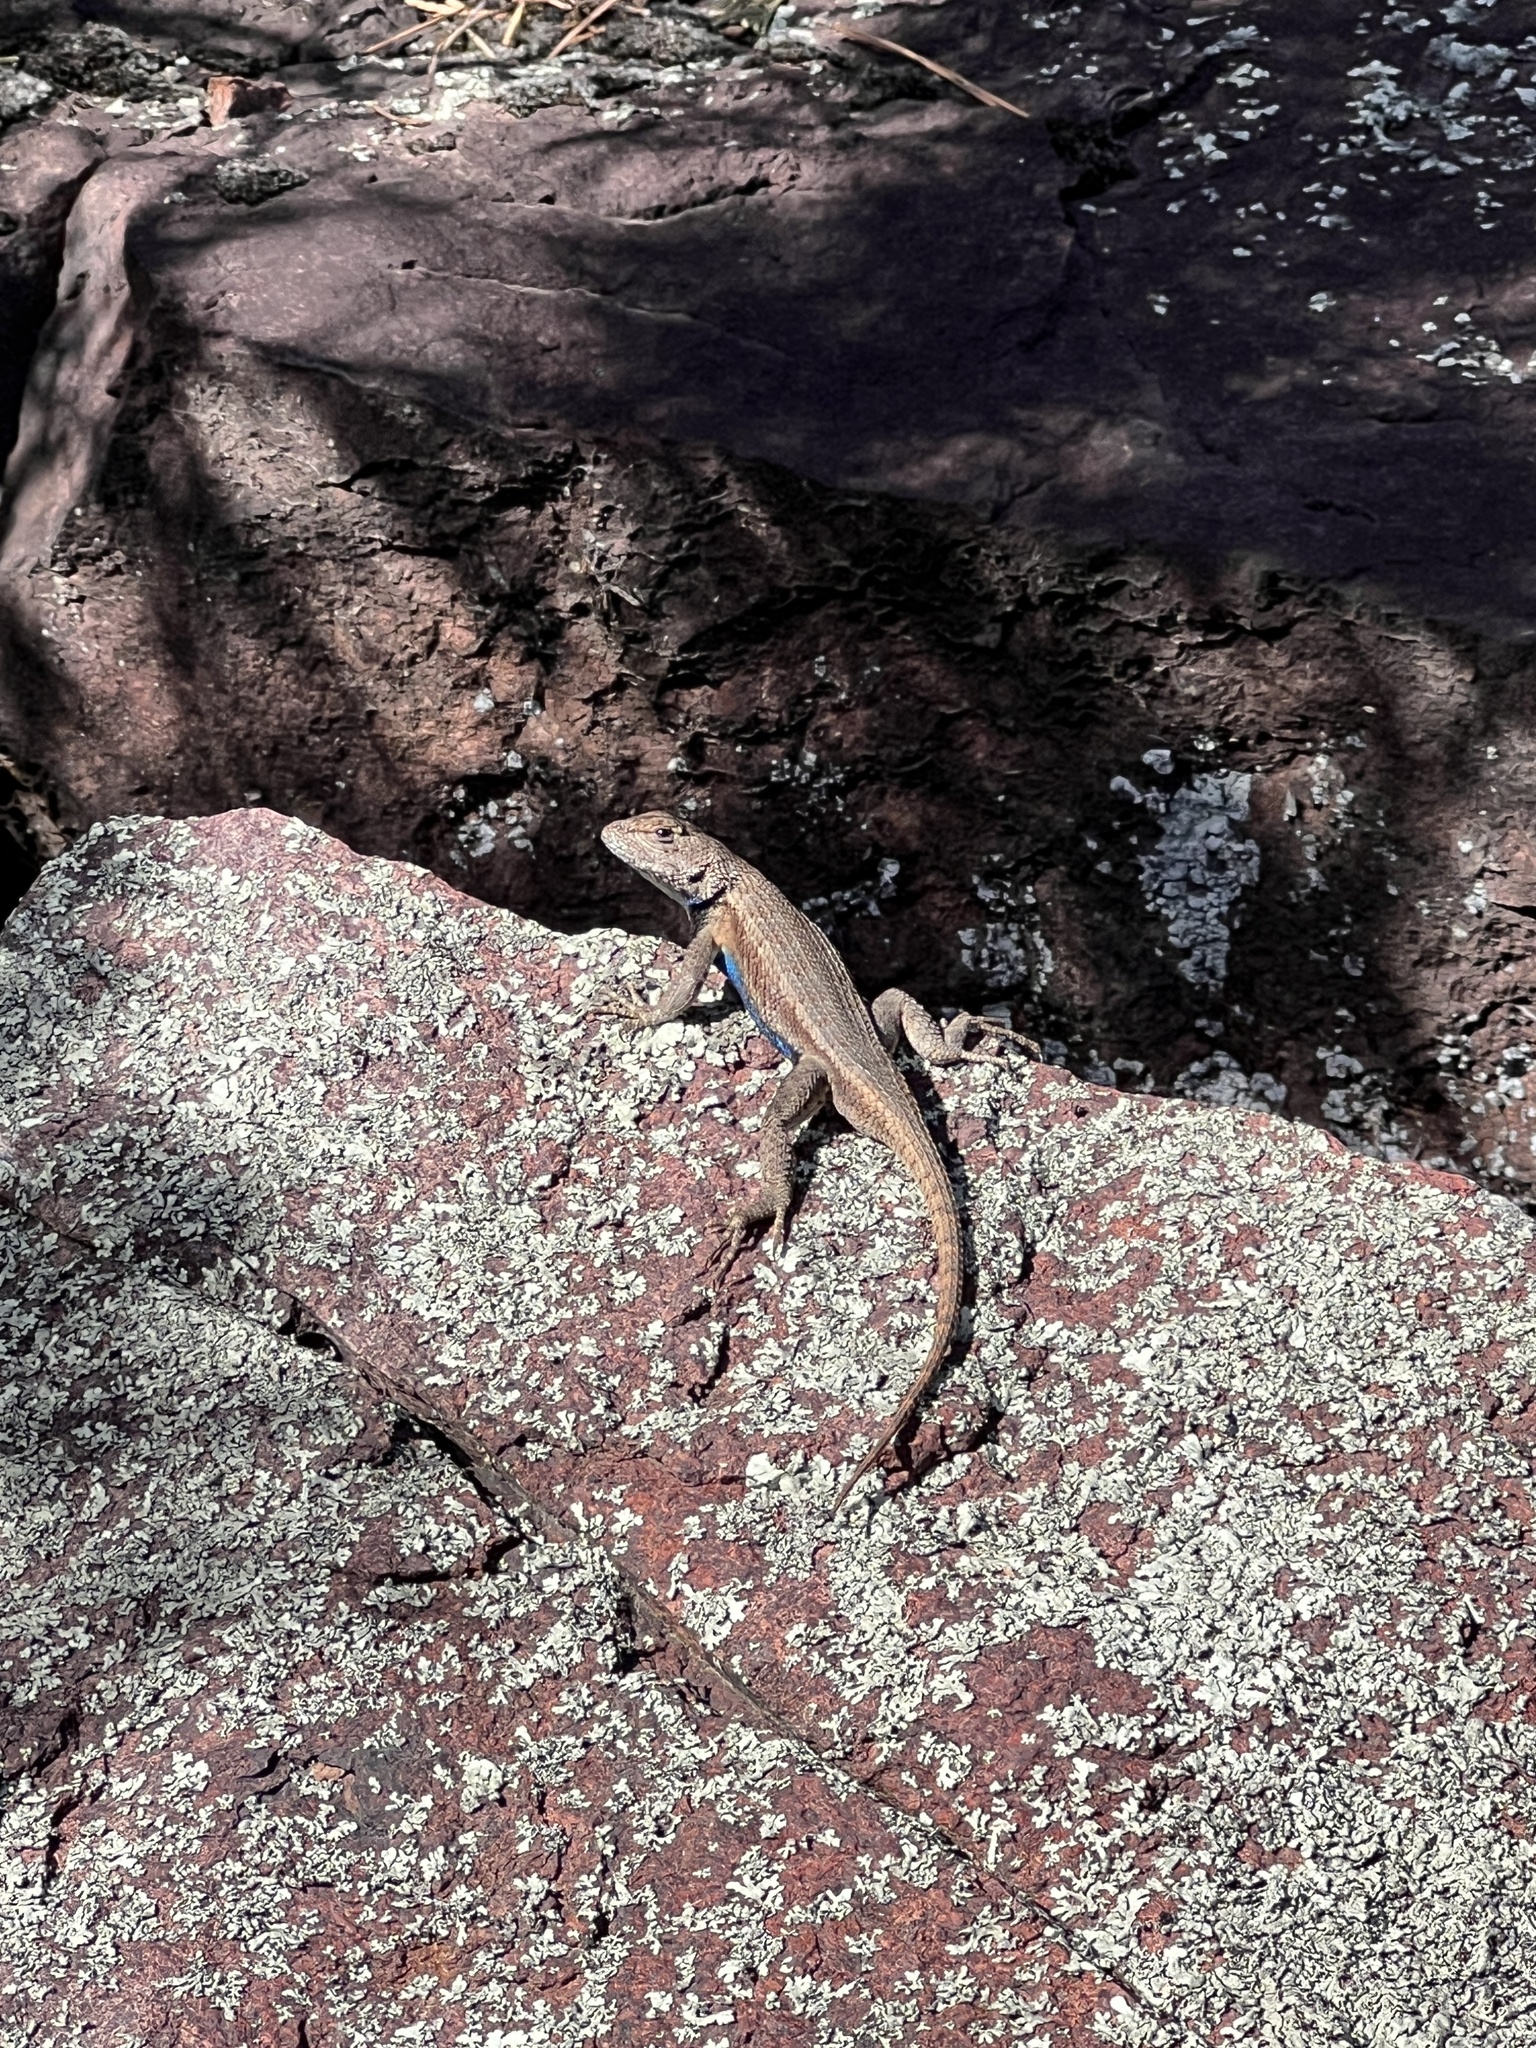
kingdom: Animalia
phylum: Chordata
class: Squamata
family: Phrynosomatidae
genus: Sceloporus
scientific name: Sceloporus consobrinus
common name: Southern prairie lizard
